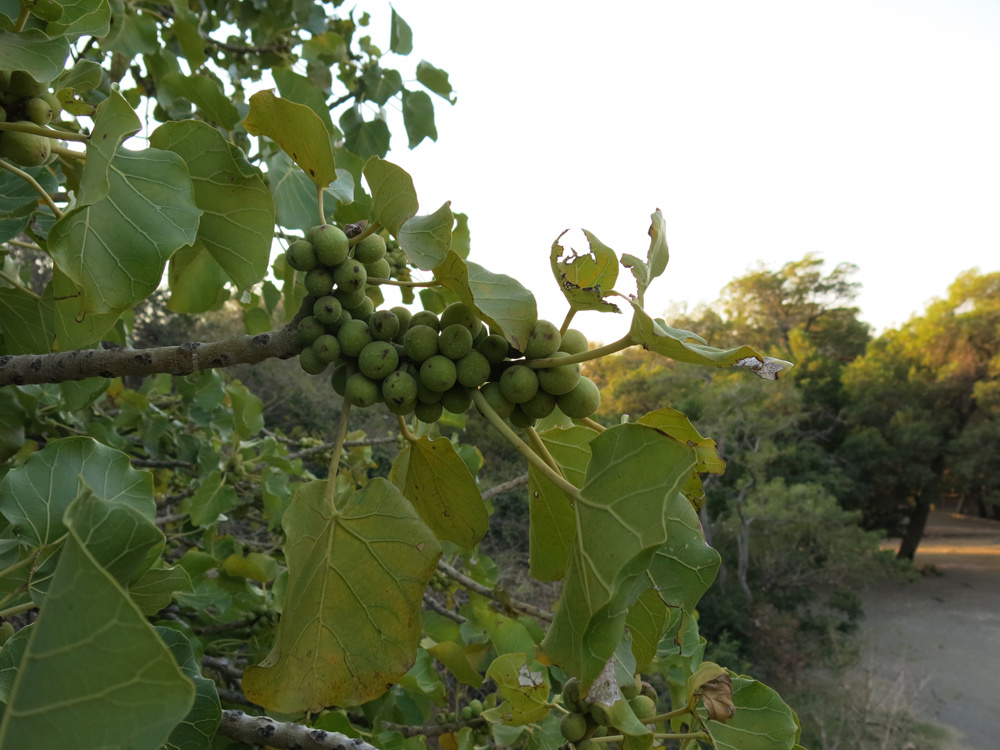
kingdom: Plantae
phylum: Tracheophyta
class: Magnoliopsida
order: Rosales
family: Moraceae
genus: Ficus
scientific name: Ficus abutilifolia
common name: Large-leaved rock fig
